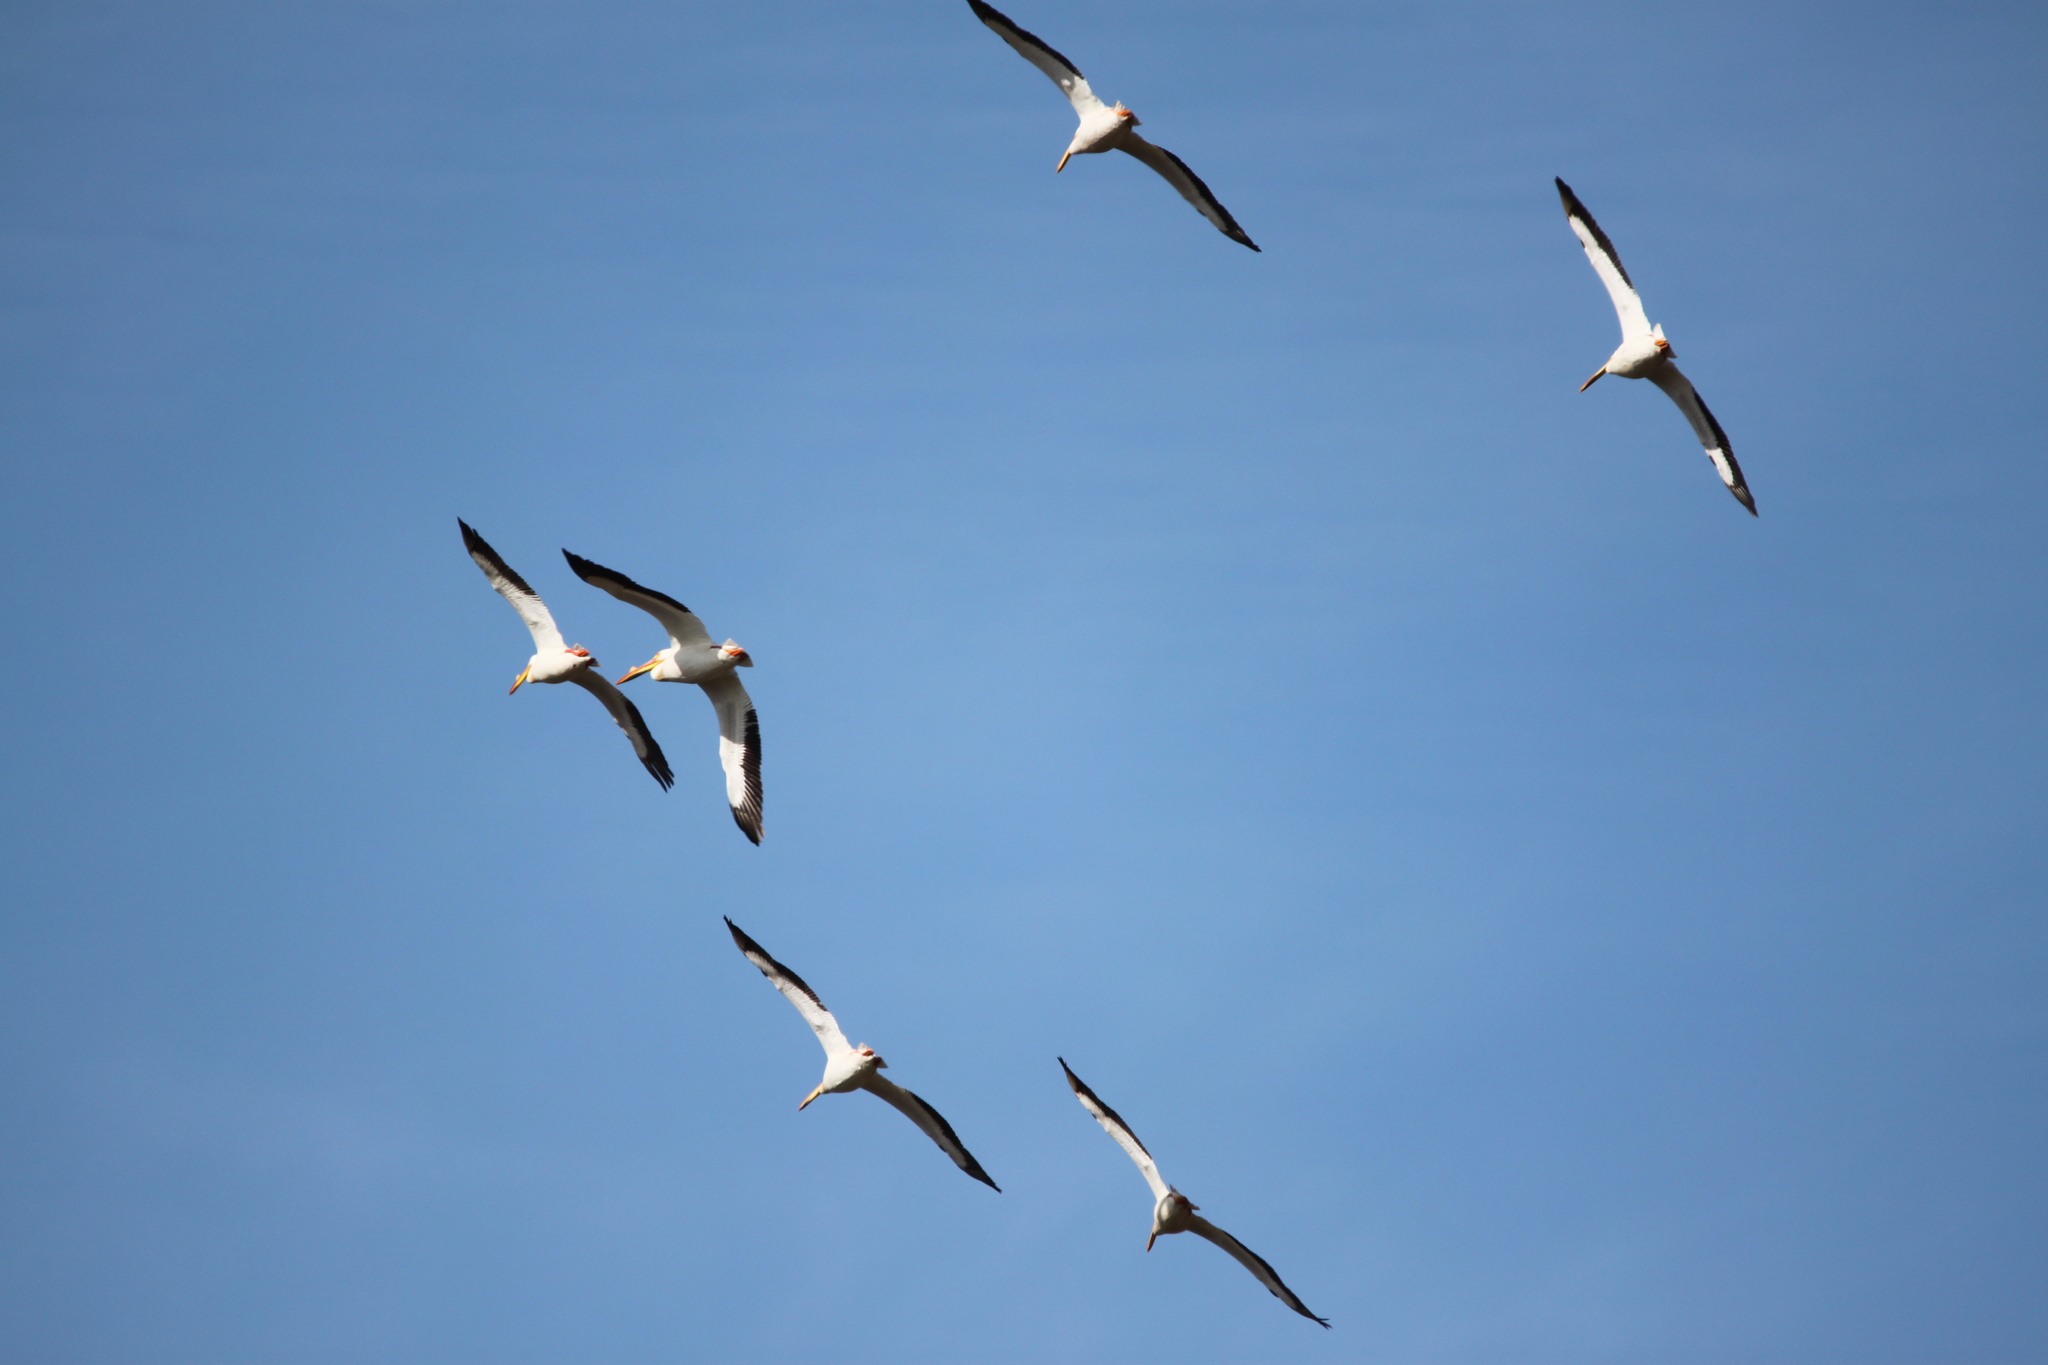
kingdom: Animalia
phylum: Chordata
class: Aves
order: Pelecaniformes
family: Pelecanidae
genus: Pelecanus
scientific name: Pelecanus erythrorhynchos
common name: American white pelican
